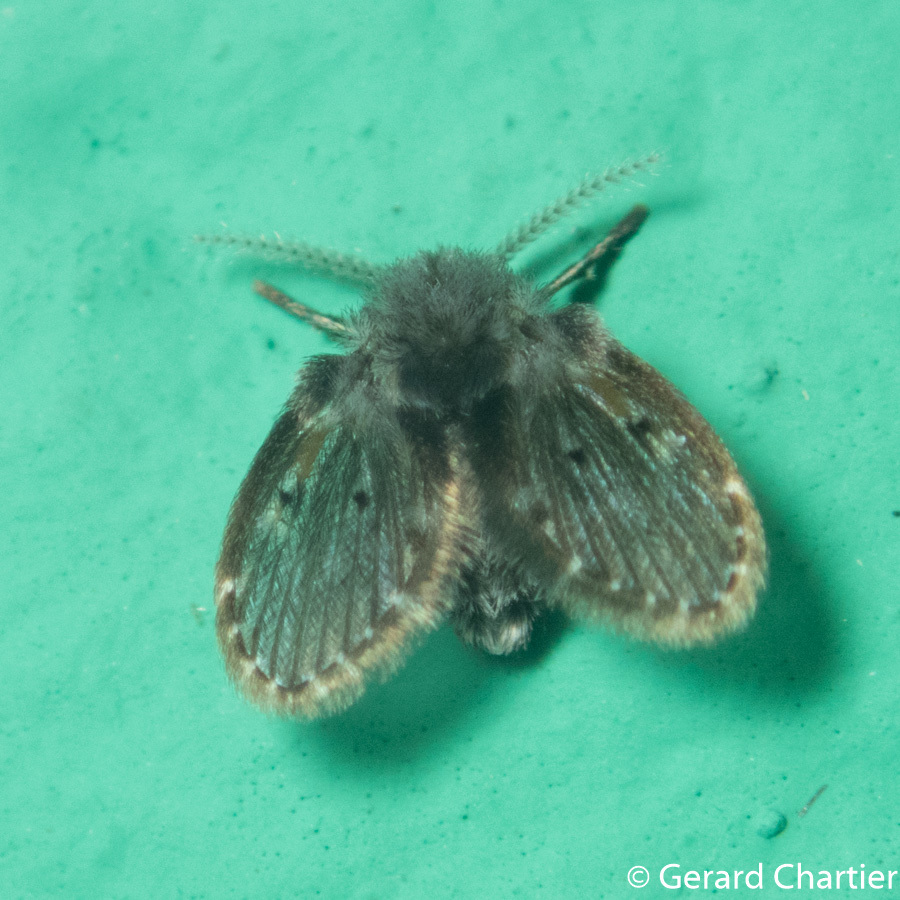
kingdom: Animalia
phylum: Arthropoda
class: Insecta
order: Diptera
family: Psychodidae
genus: Clogmia
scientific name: Clogmia albipunctatus
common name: White-spotted moth fly
